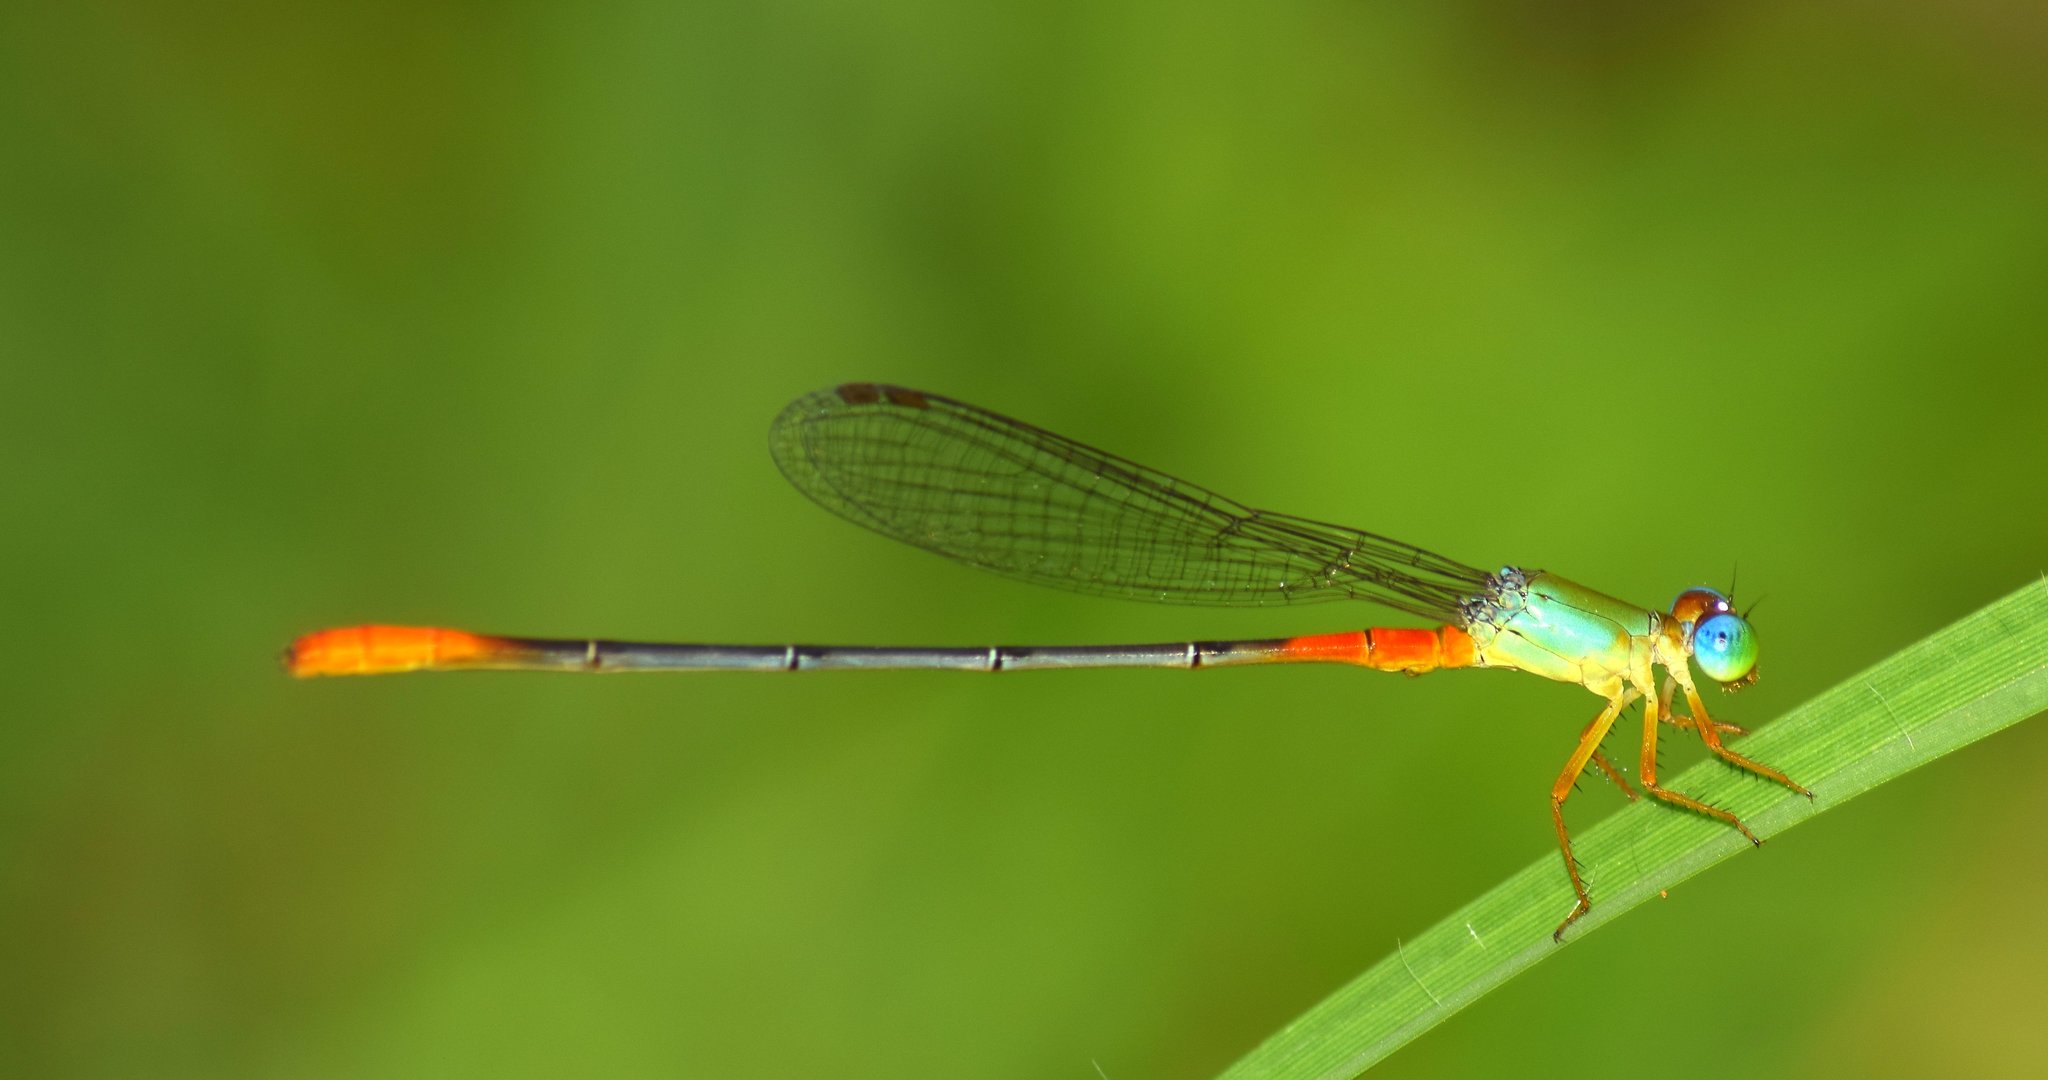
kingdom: Animalia
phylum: Arthropoda
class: Insecta
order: Odonata
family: Coenagrionidae
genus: Ceriagrion
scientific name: Ceriagrion cerinorubellum
